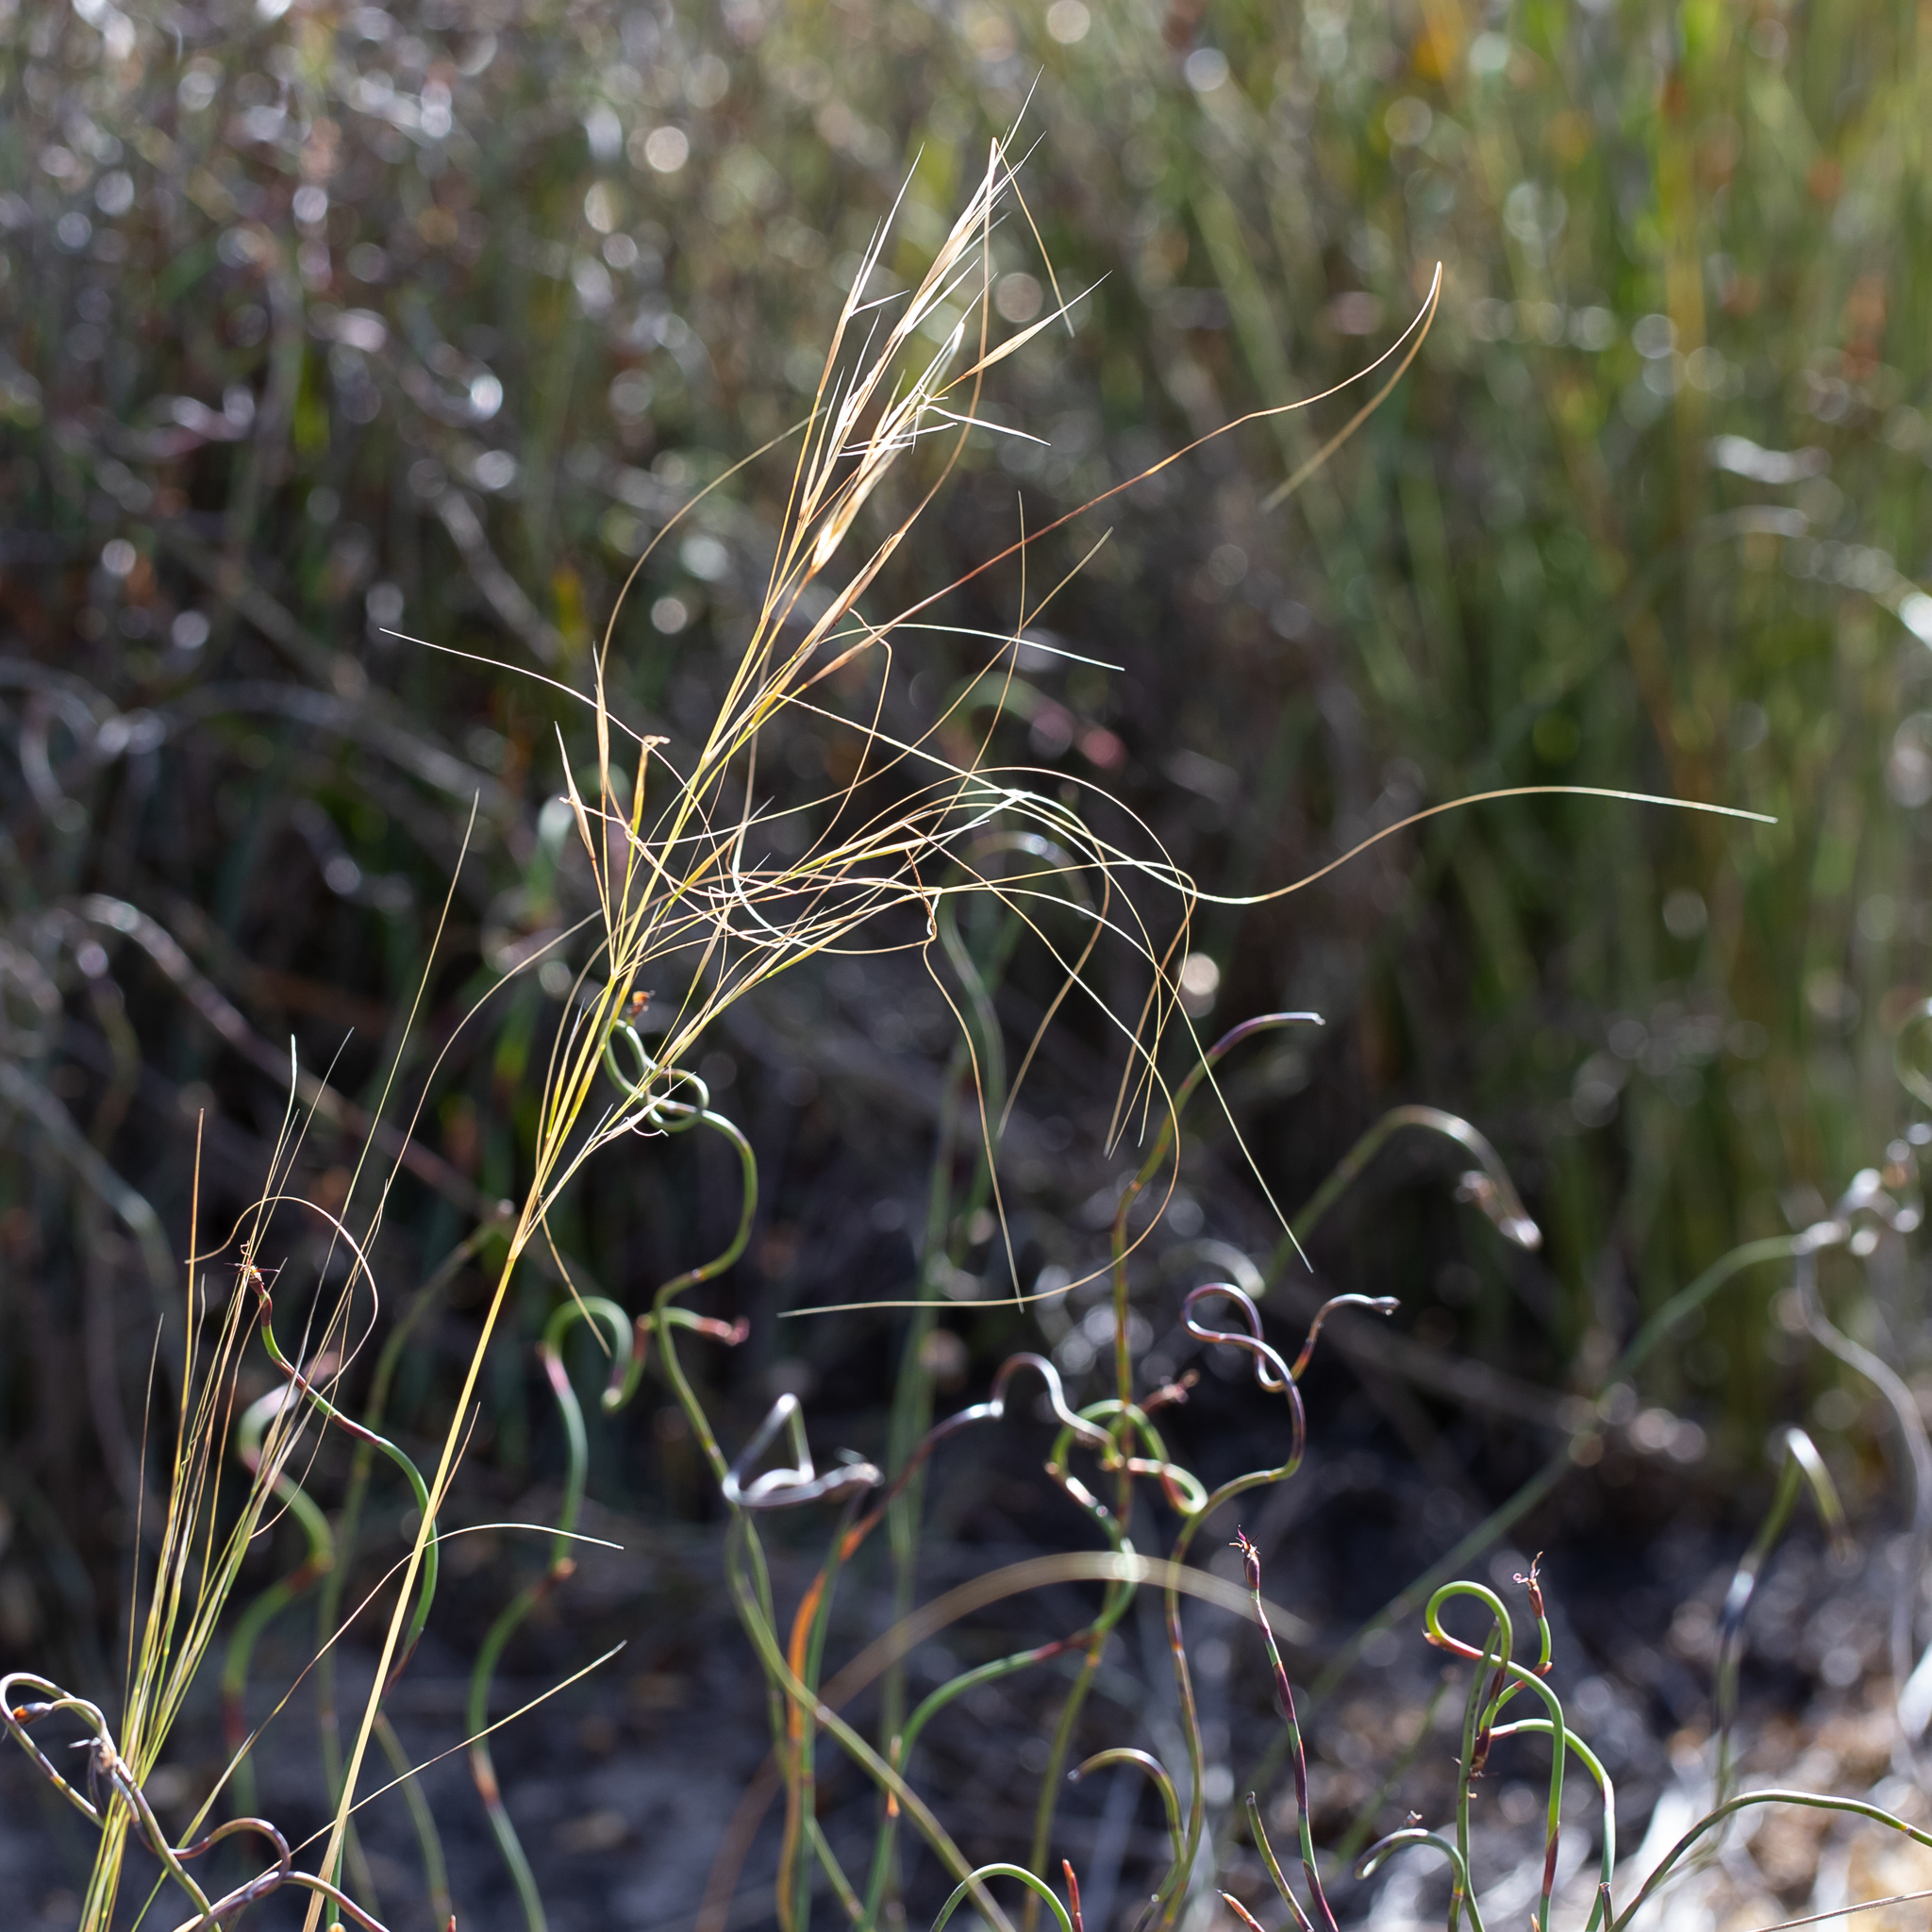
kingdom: Plantae
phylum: Tracheophyta
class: Liliopsida
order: Poales
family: Poaceae
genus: Austrostipa
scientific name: Austrostipa macalpinei
